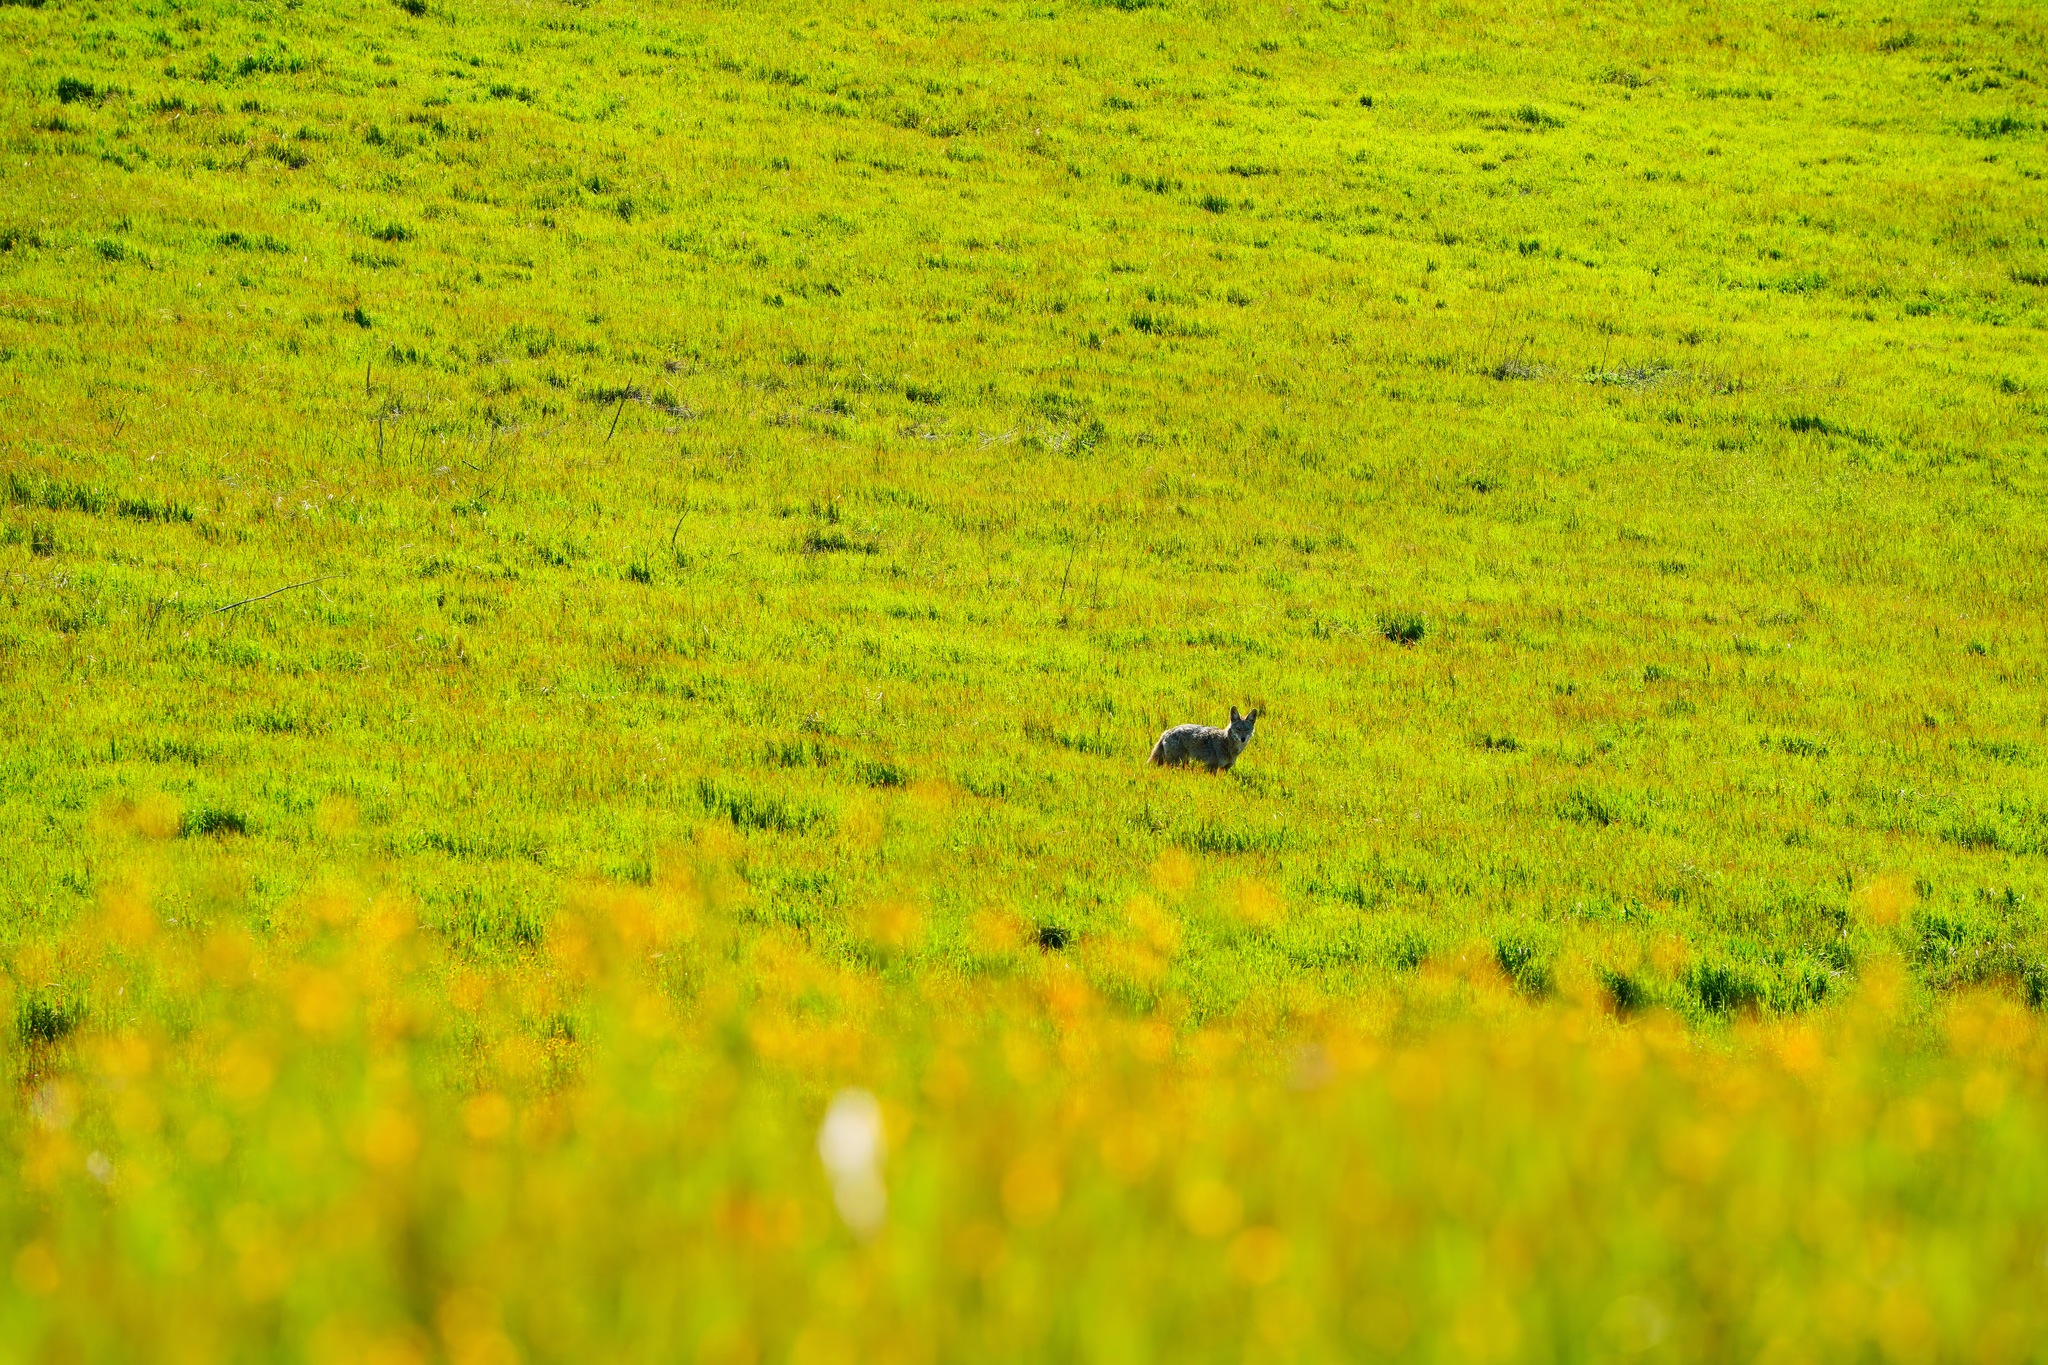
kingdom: Animalia
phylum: Chordata
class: Mammalia
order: Carnivora
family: Canidae
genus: Canis
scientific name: Canis latrans
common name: Coyote
